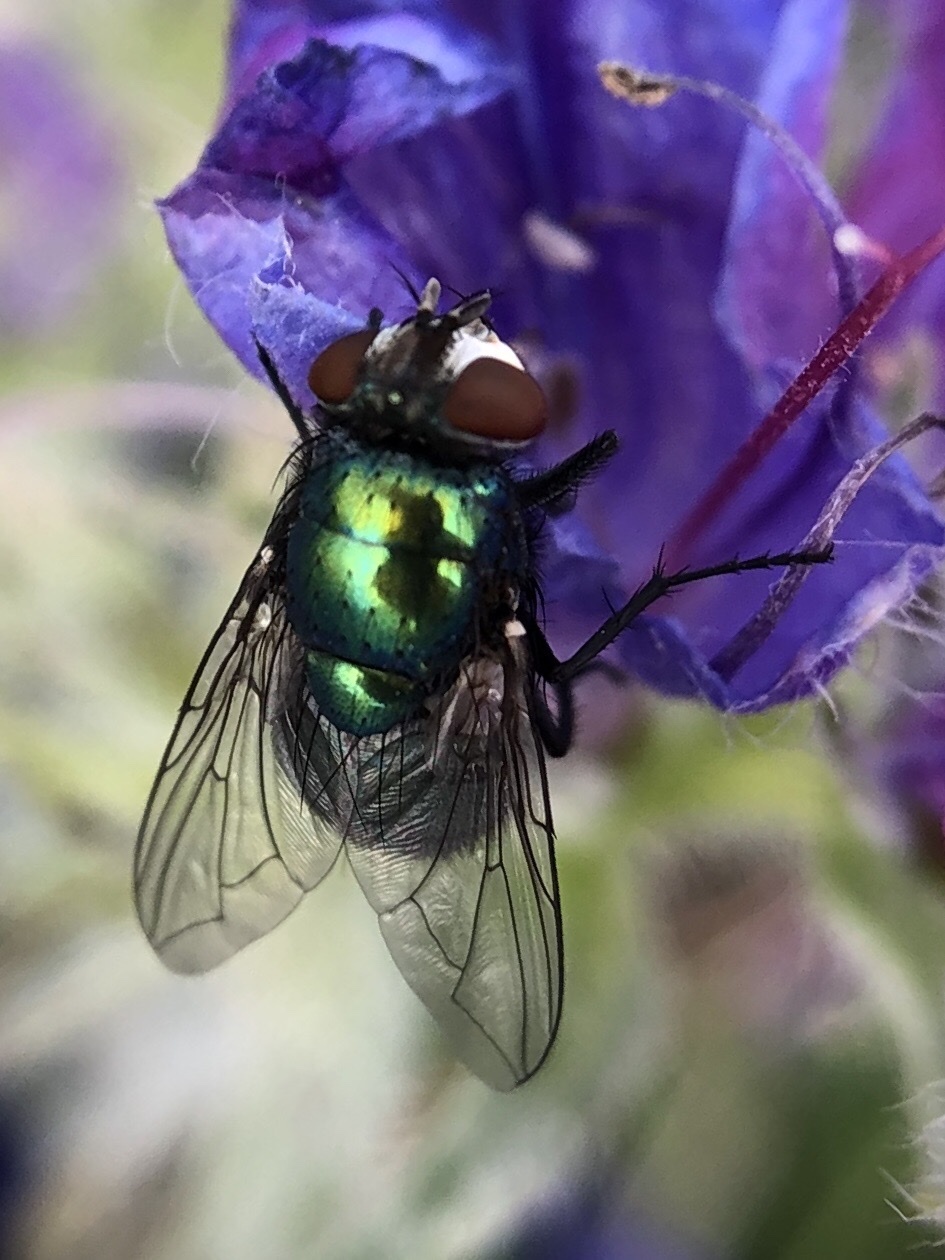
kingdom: Animalia
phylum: Arthropoda
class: Insecta
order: Diptera
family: Calliphoridae
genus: Lucilia
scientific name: Lucilia sericata
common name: Blow fly
